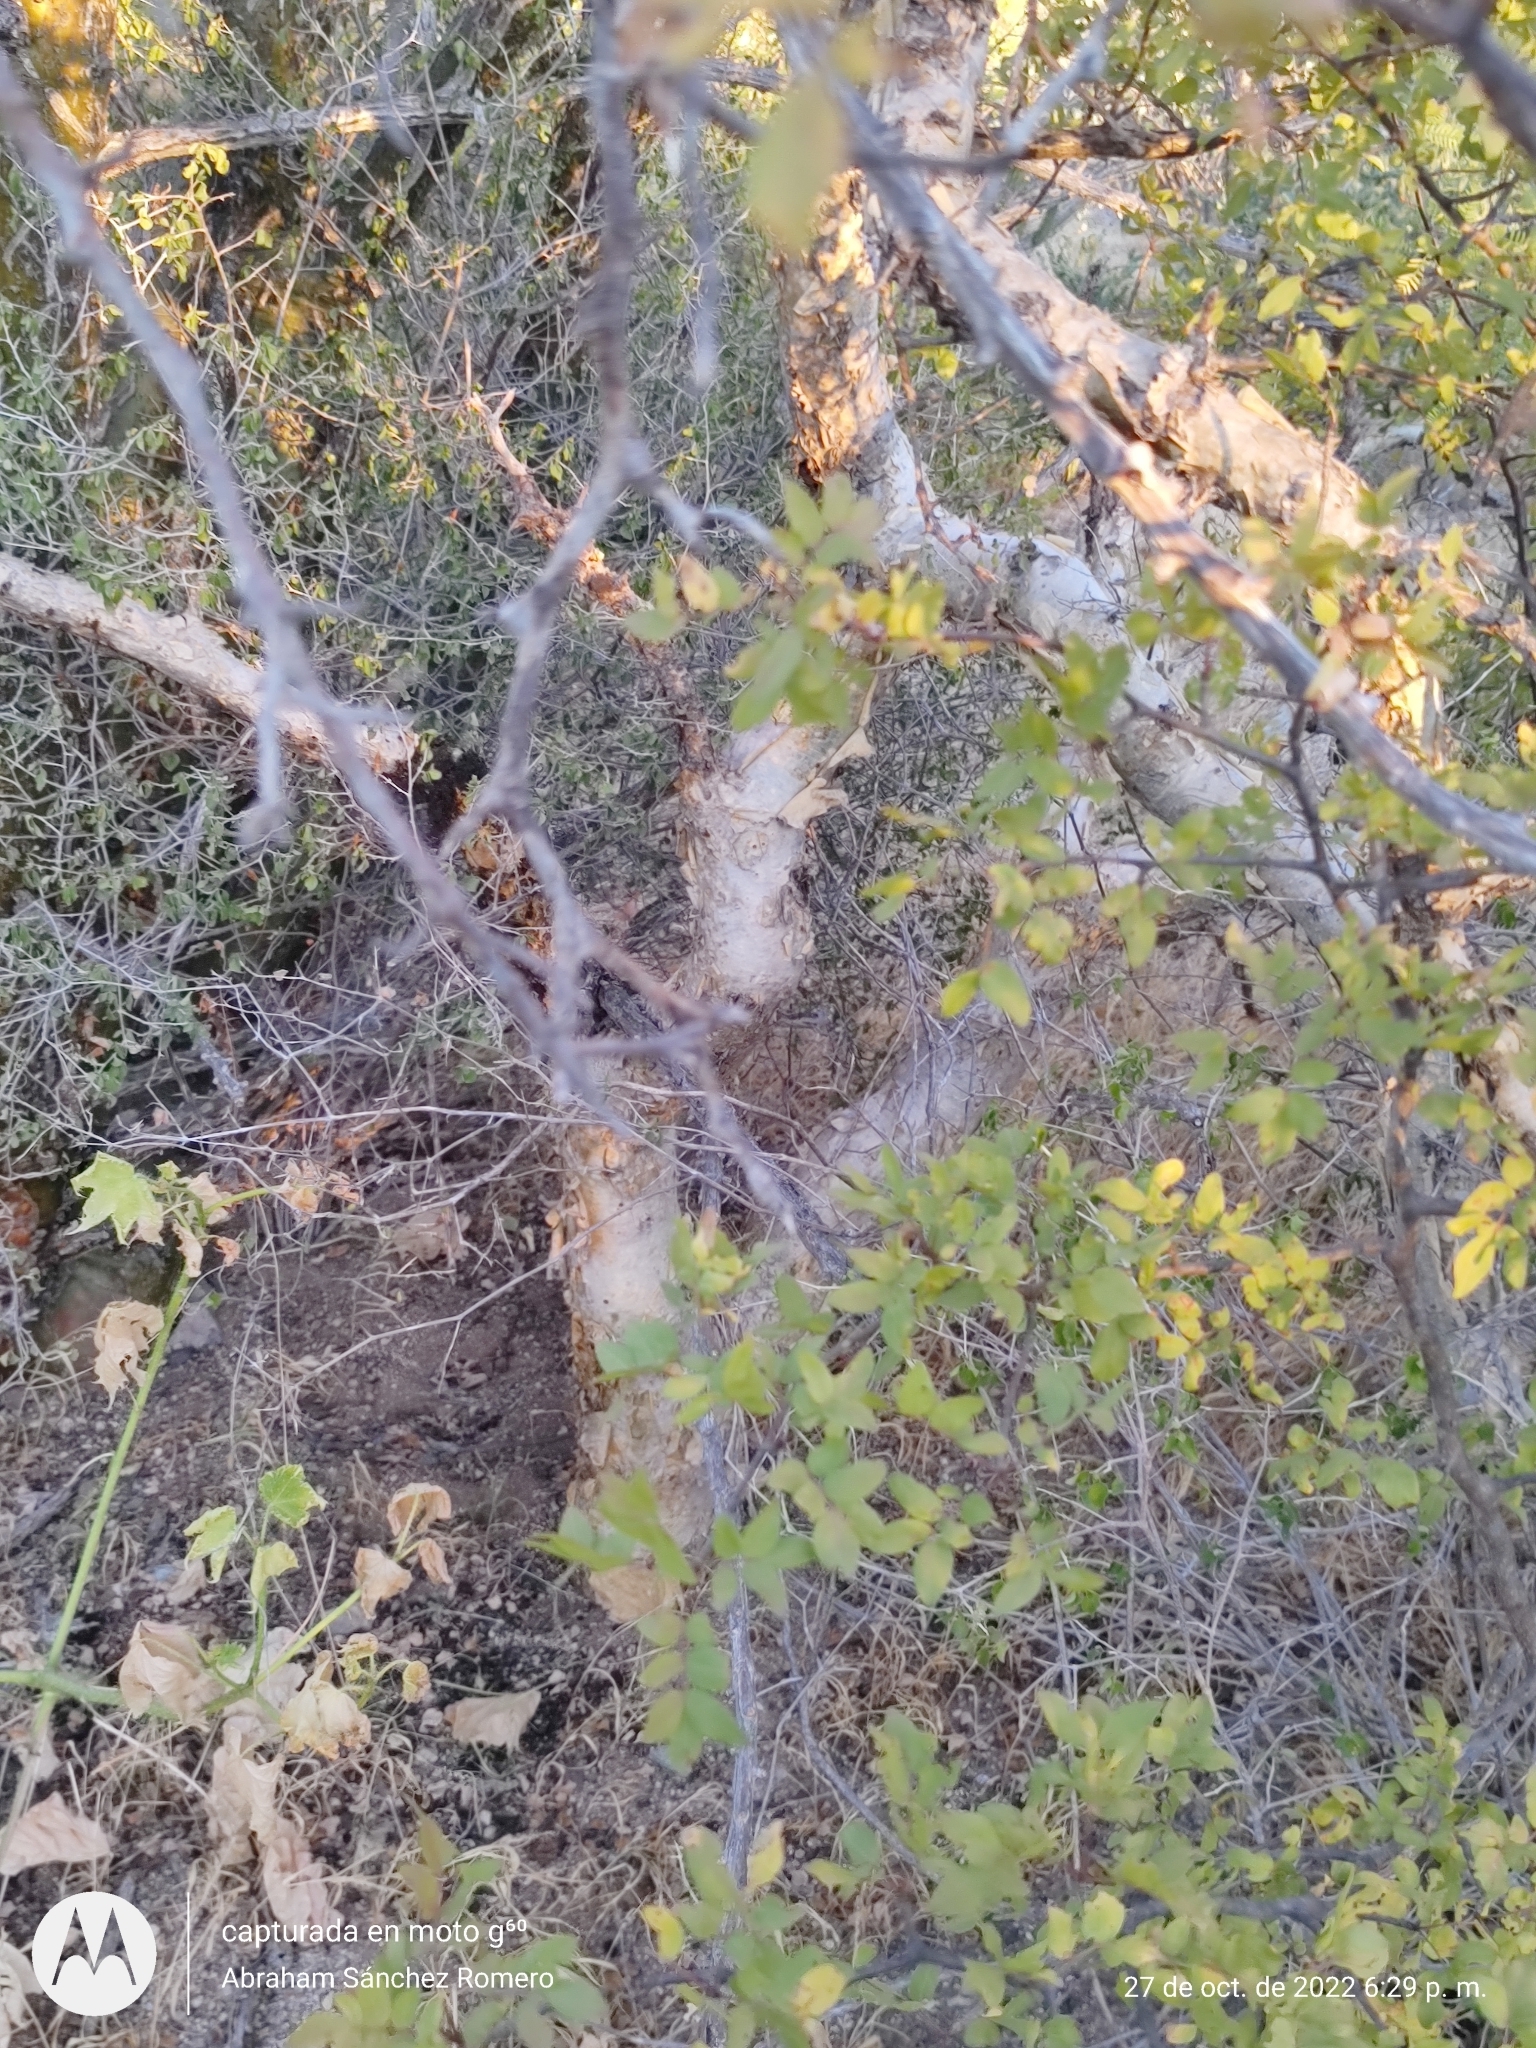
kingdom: Plantae
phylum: Tracheophyta
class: Magnoliopsida
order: Sapindales
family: Burseraceae
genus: Bursera
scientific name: Bursera fagaroides
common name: Elephant tree
